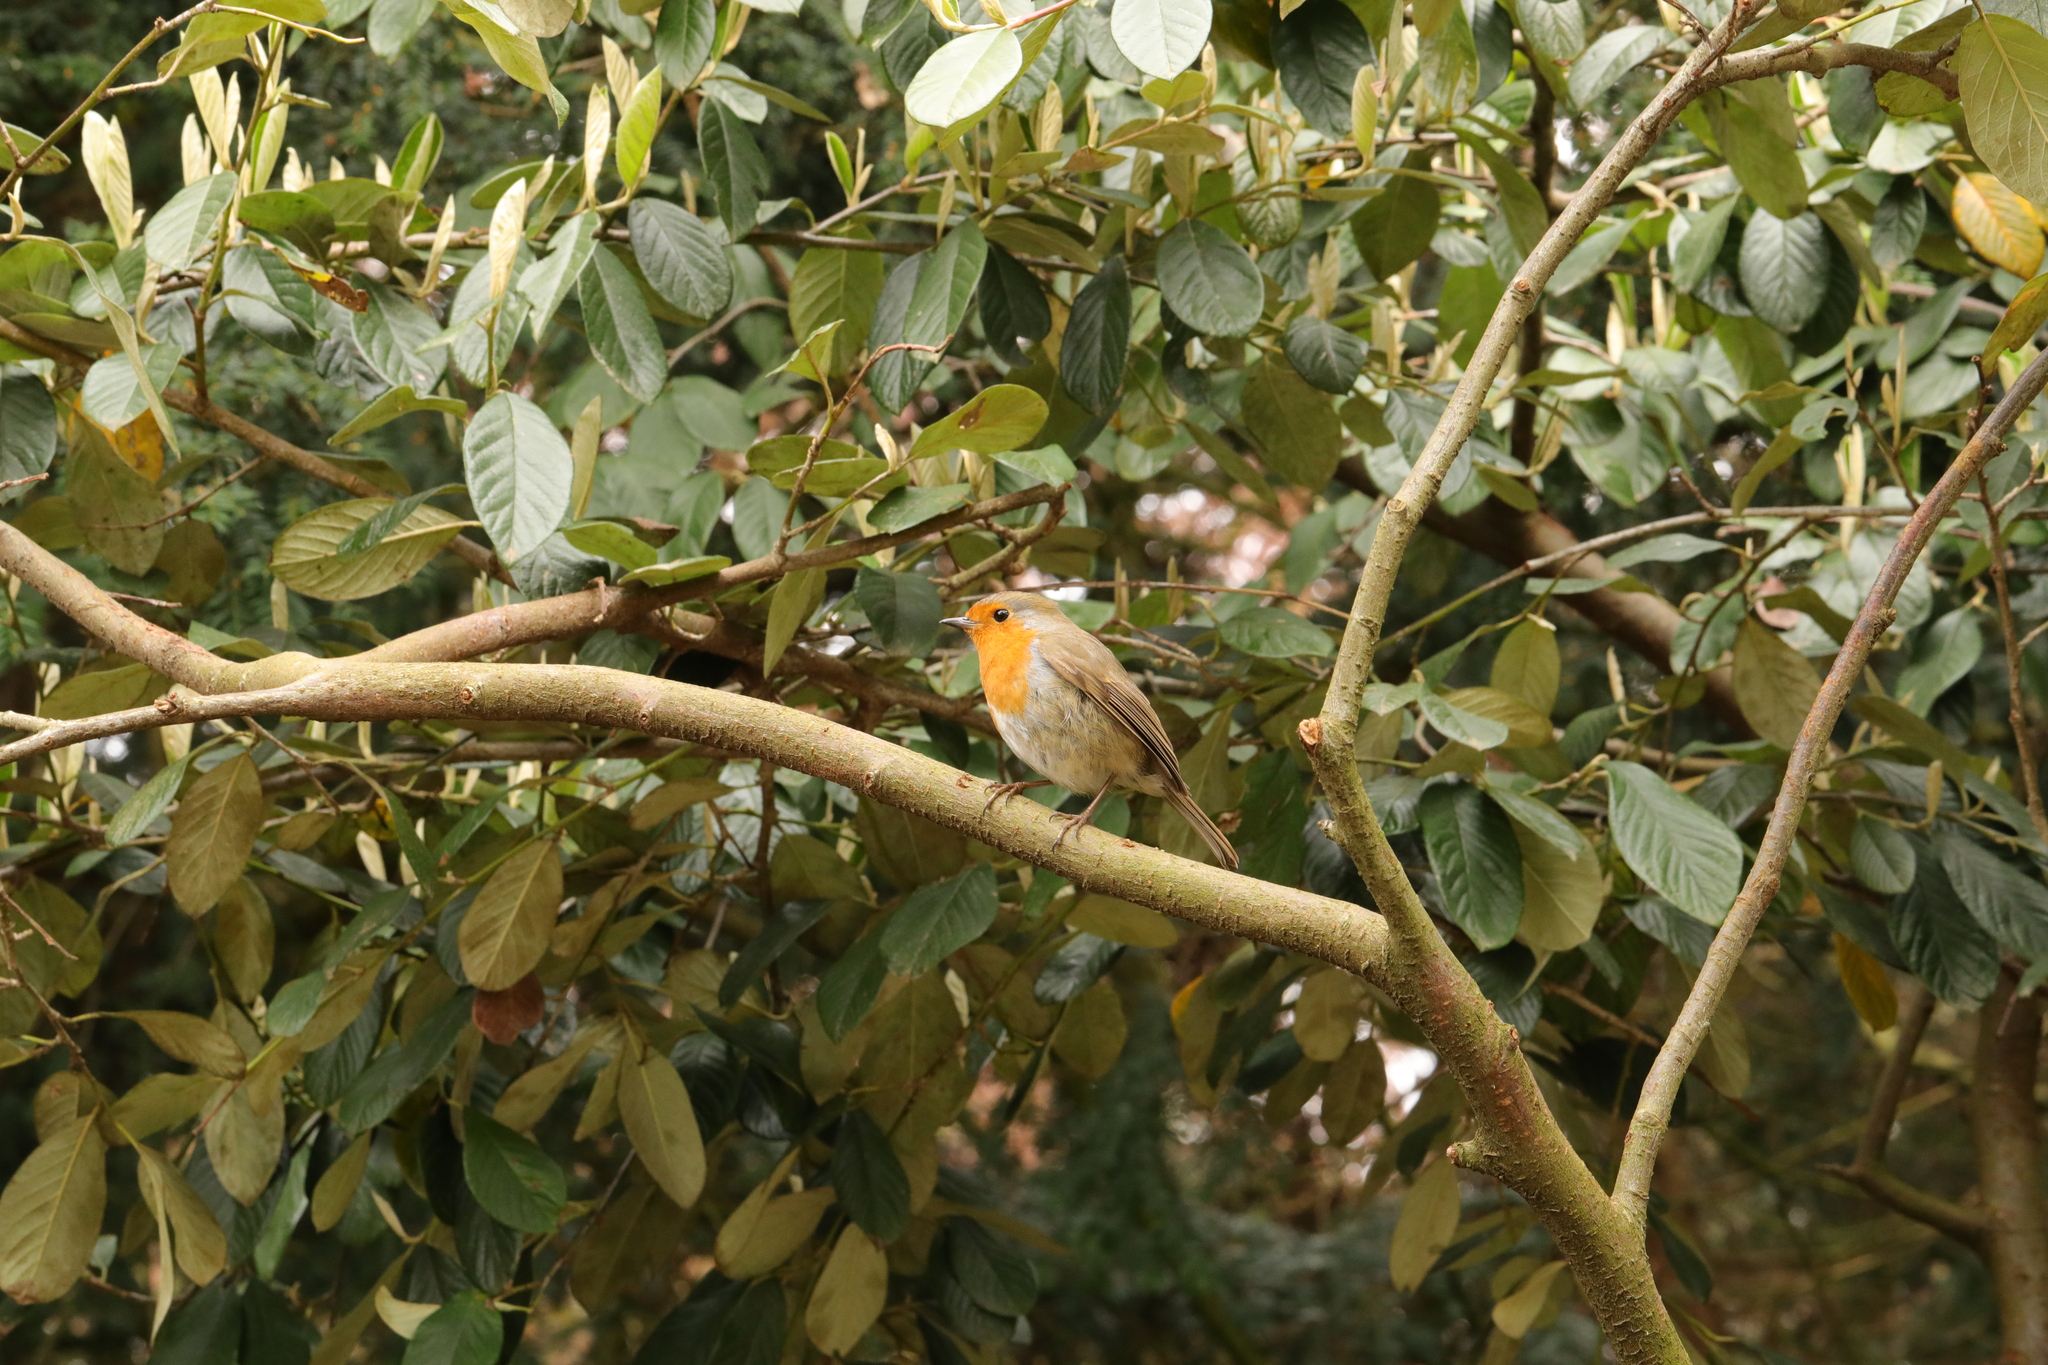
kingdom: Animalia
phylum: Chordata
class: Aves
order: Passeriformes
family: Muscicapidae
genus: Erithacus
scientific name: Erithacus rubecula
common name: European robin
